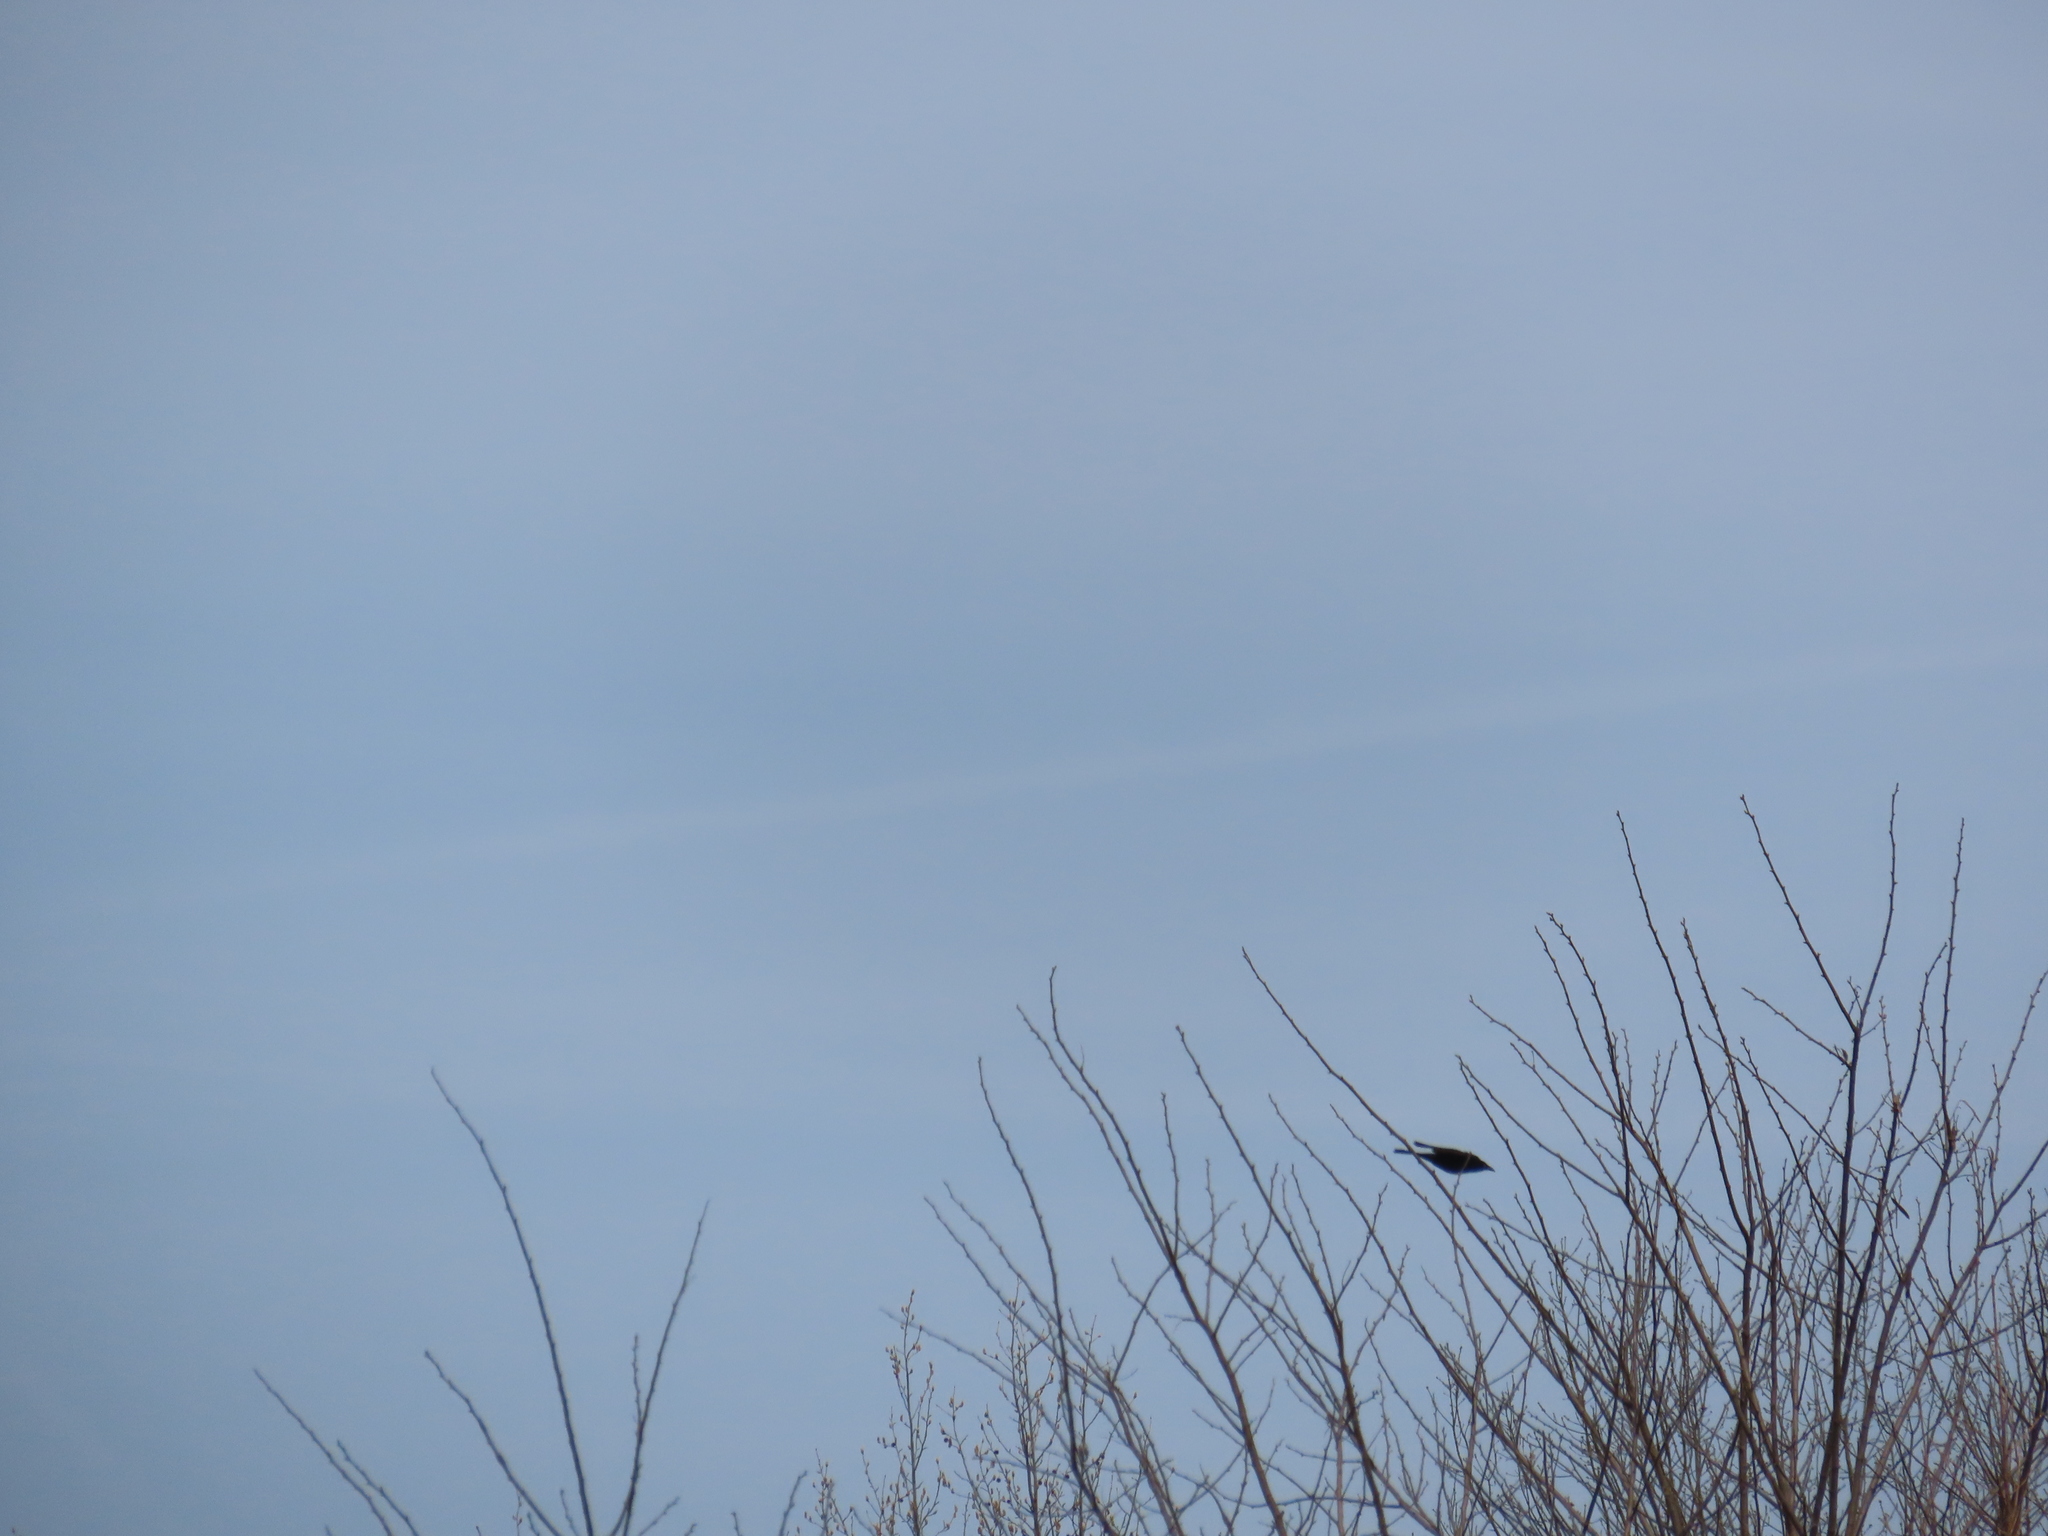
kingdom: Animalia
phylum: Chordata
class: Aves
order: Passeriformes
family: Icteridae
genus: Quiscalus
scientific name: Quiscalus quiscula
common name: Common grackle
